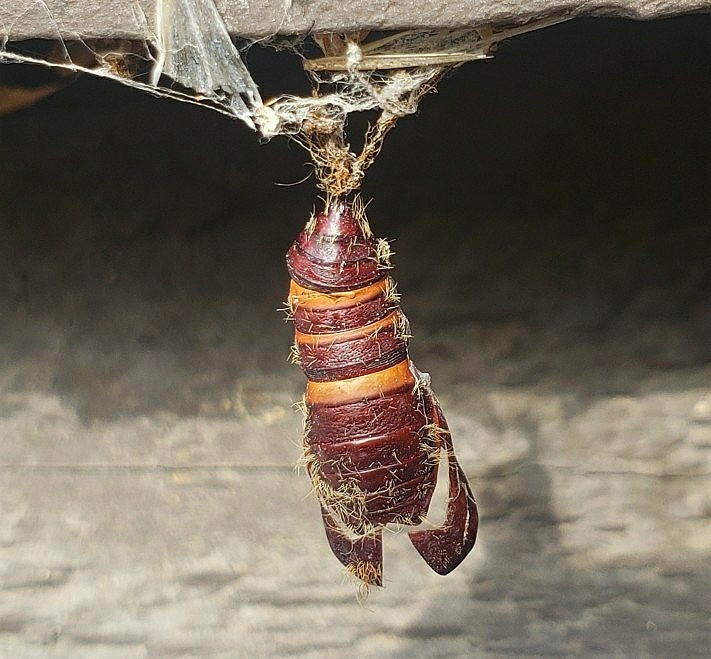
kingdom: Animalia
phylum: Arthropoda
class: Insecta
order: Lepidoptera
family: Erebidae
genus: Lymantria
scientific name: Lymantria dispar
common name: Gypsy moth
